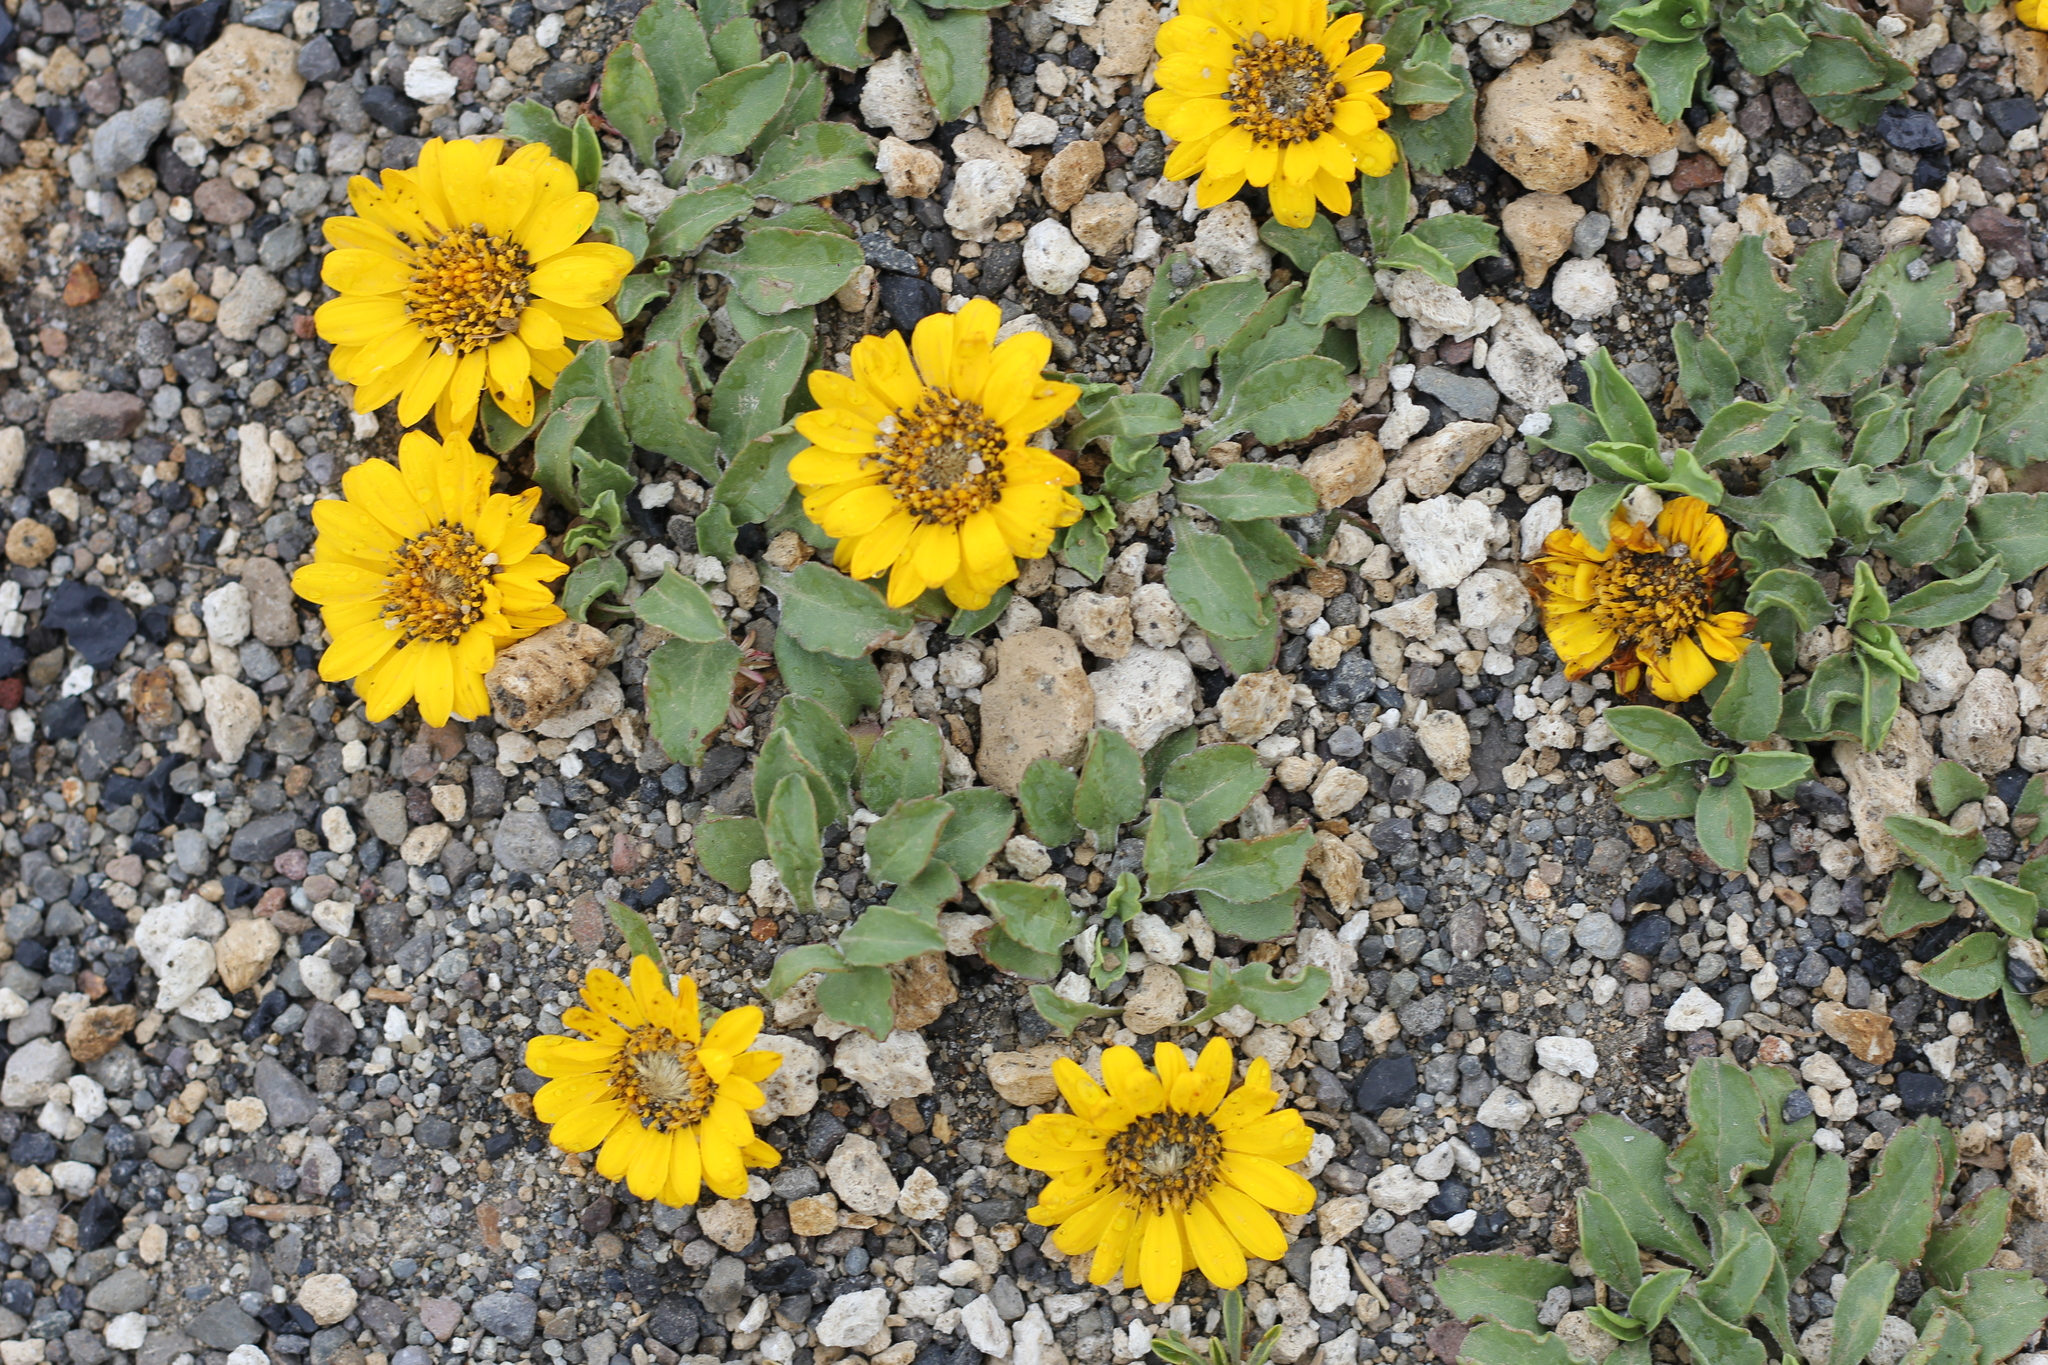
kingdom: Plantae
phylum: Tracheophyta
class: Magnoliopsida
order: Asterales
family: Asteraceae
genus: Notopappus
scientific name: Notopappus prunelloides
